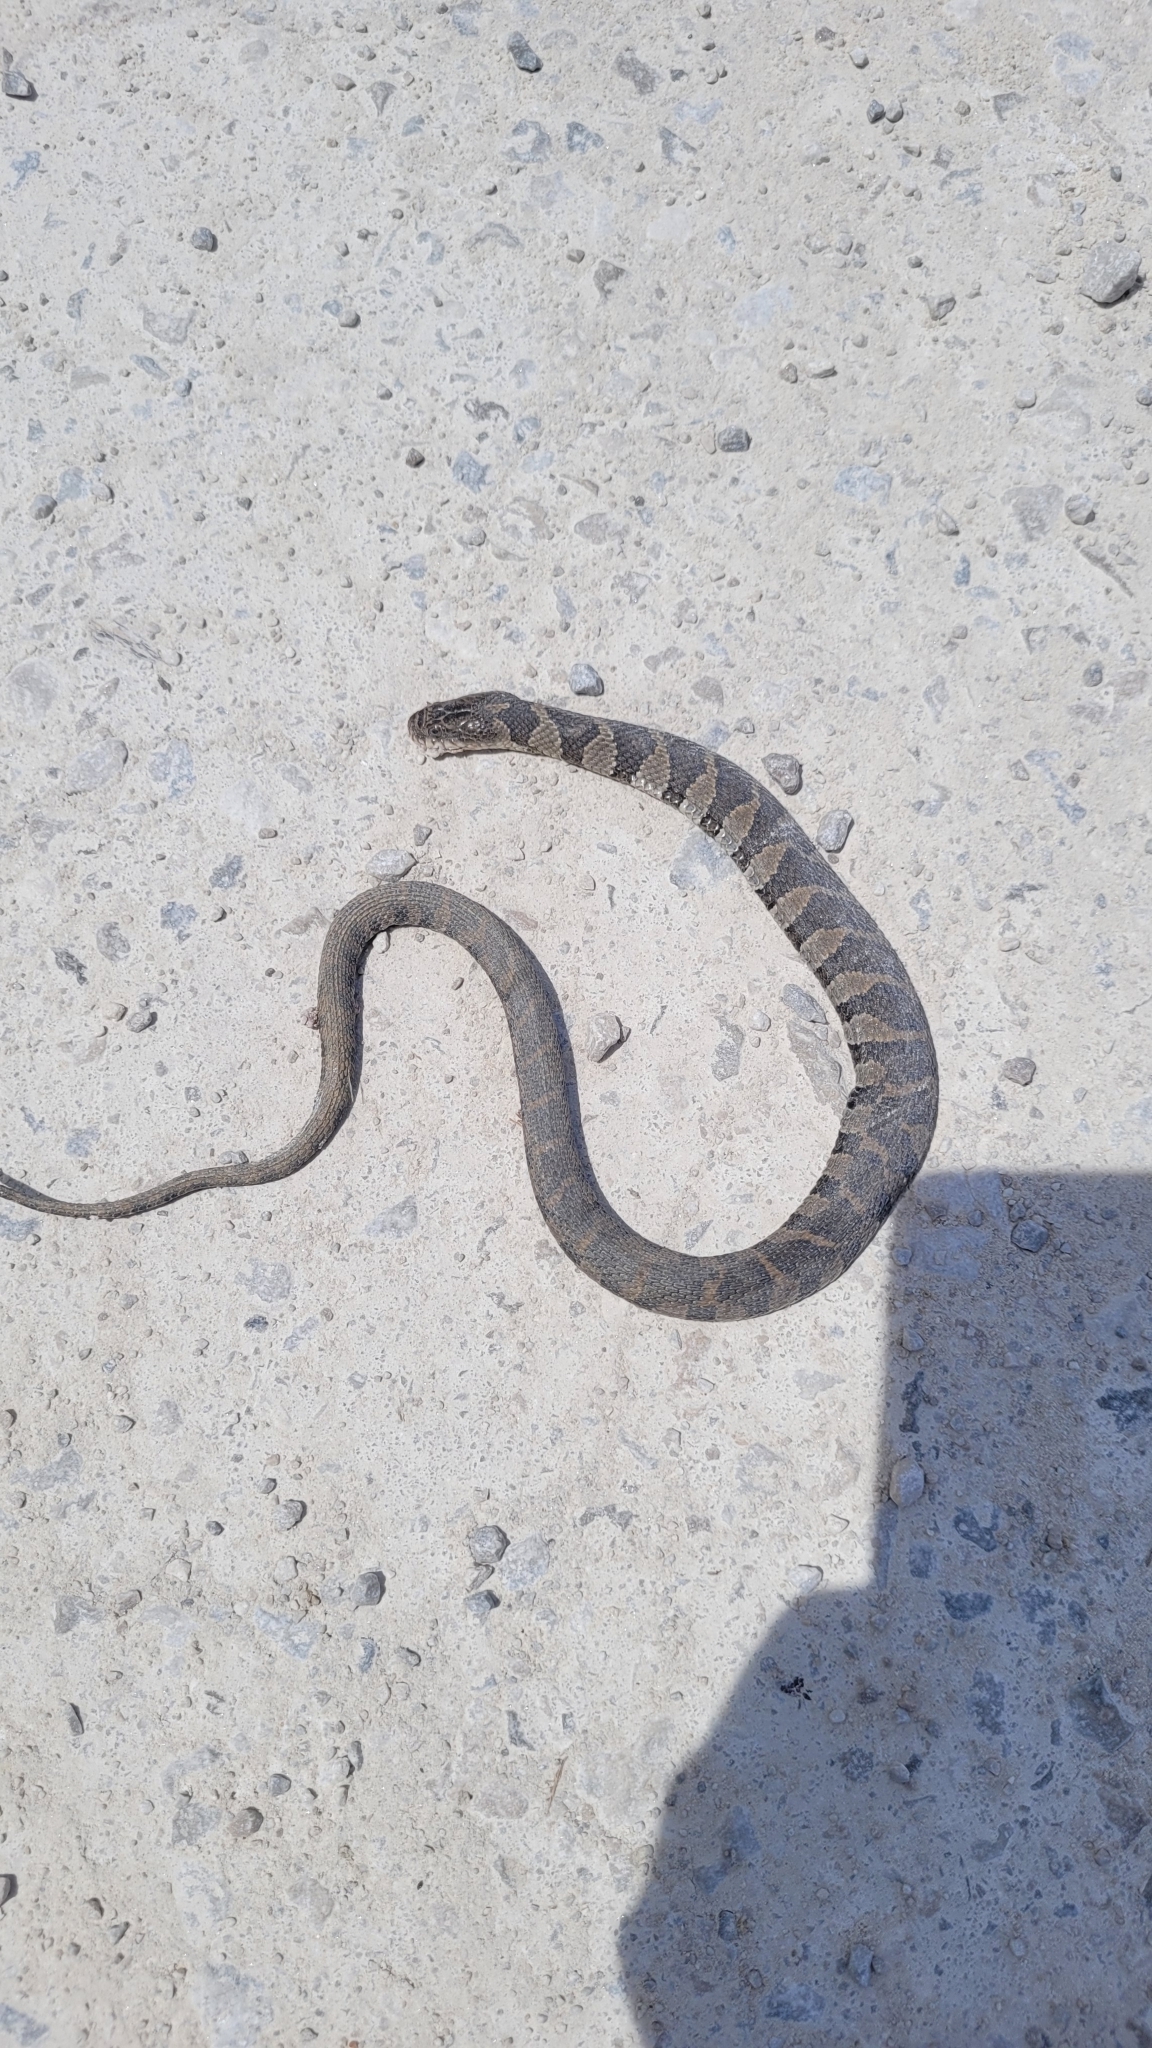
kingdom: Animalia
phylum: Chordata
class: Squamata
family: Colubridae
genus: Nerodia
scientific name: Nerodia sipedon
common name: Northern water snake
